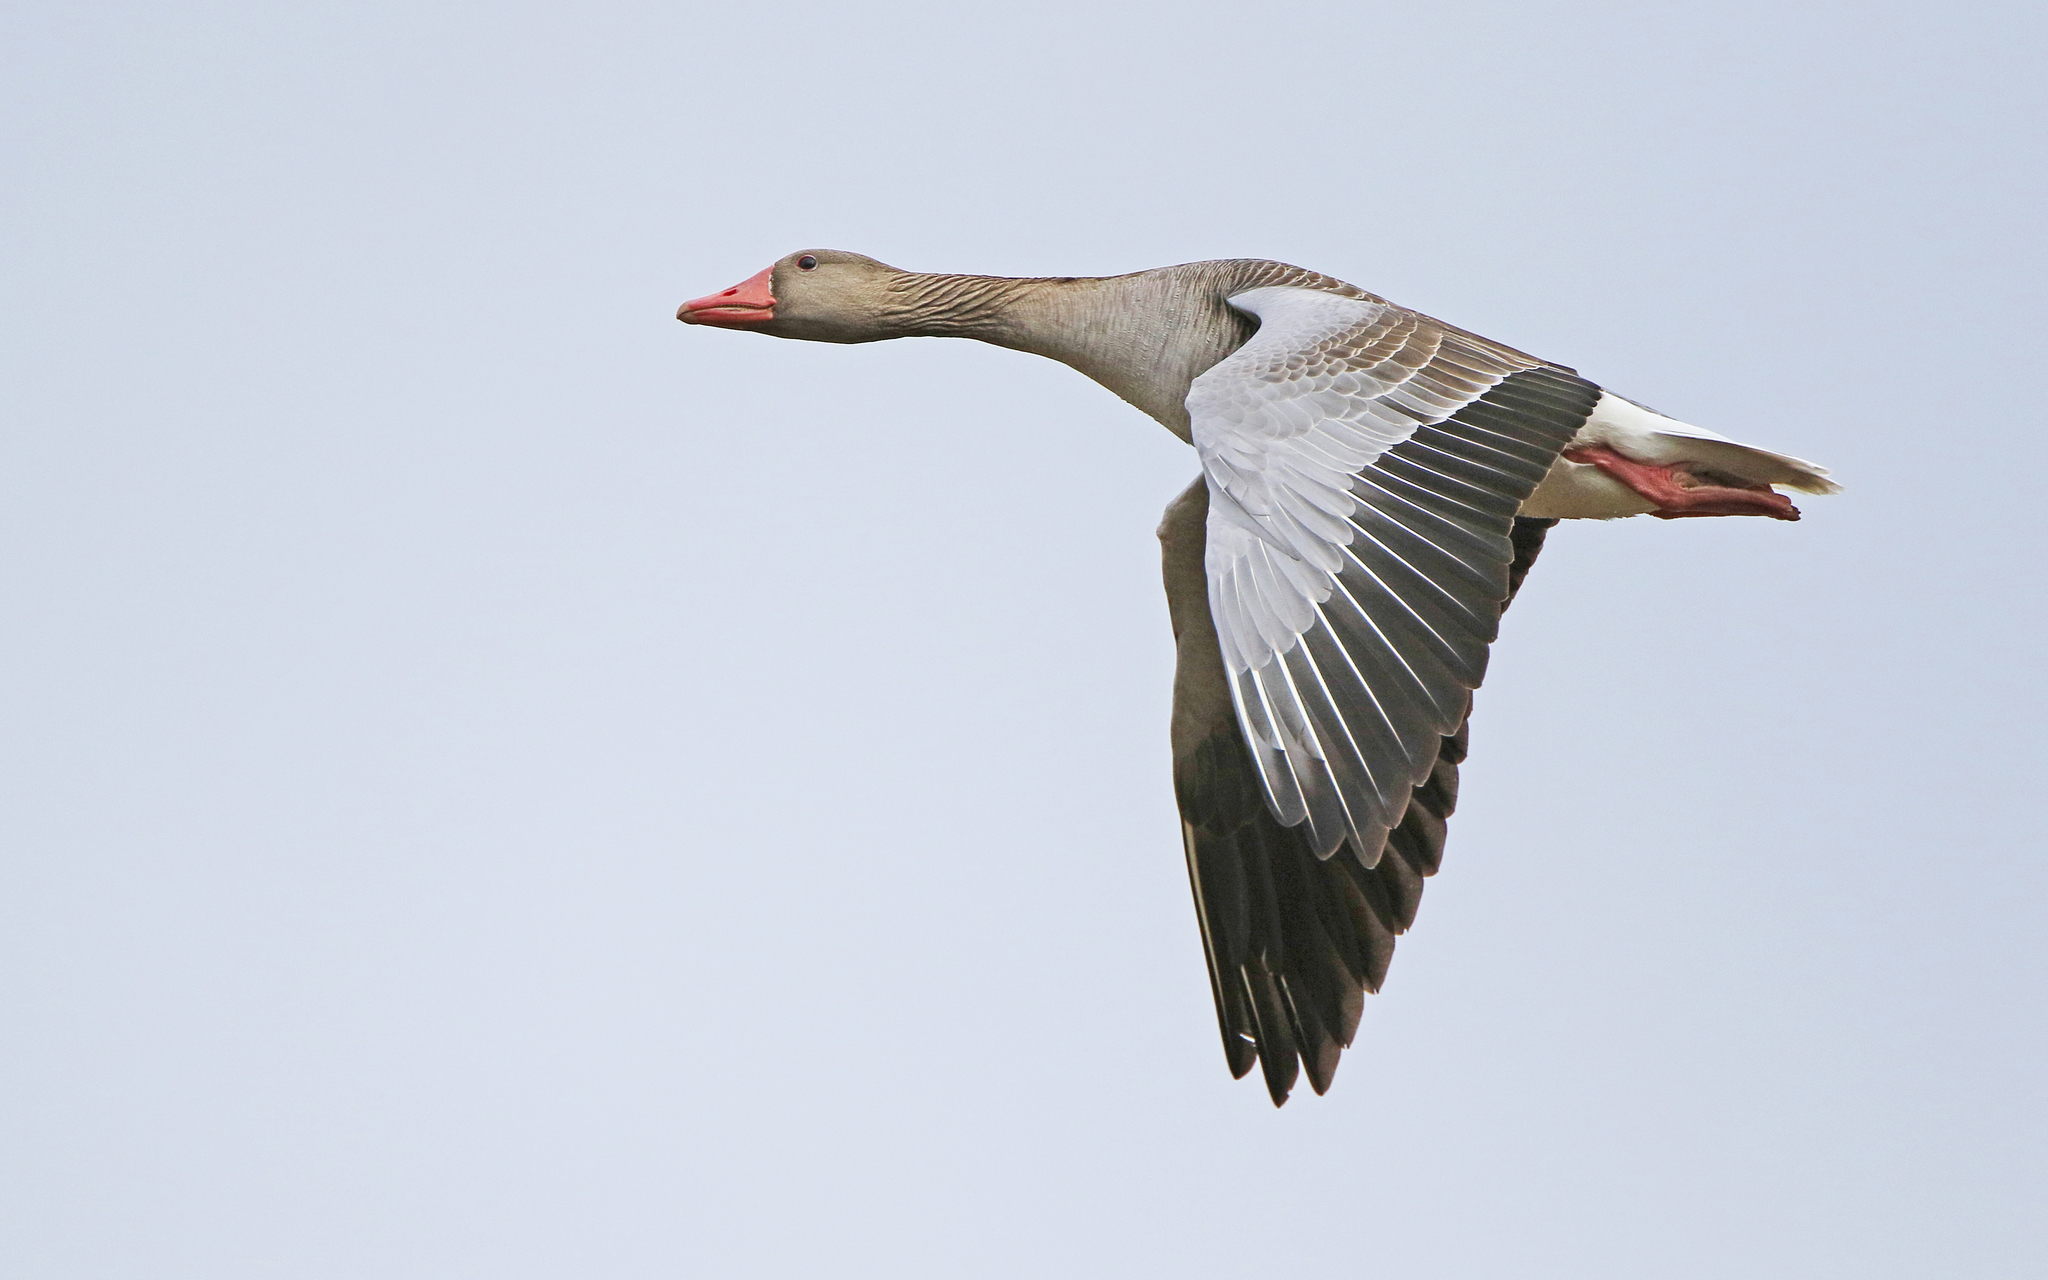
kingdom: Animalia
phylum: Chordata
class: Aves
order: Anseriformes
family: Anatidae
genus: Anser
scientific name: Anser anser
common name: Greylag goose
